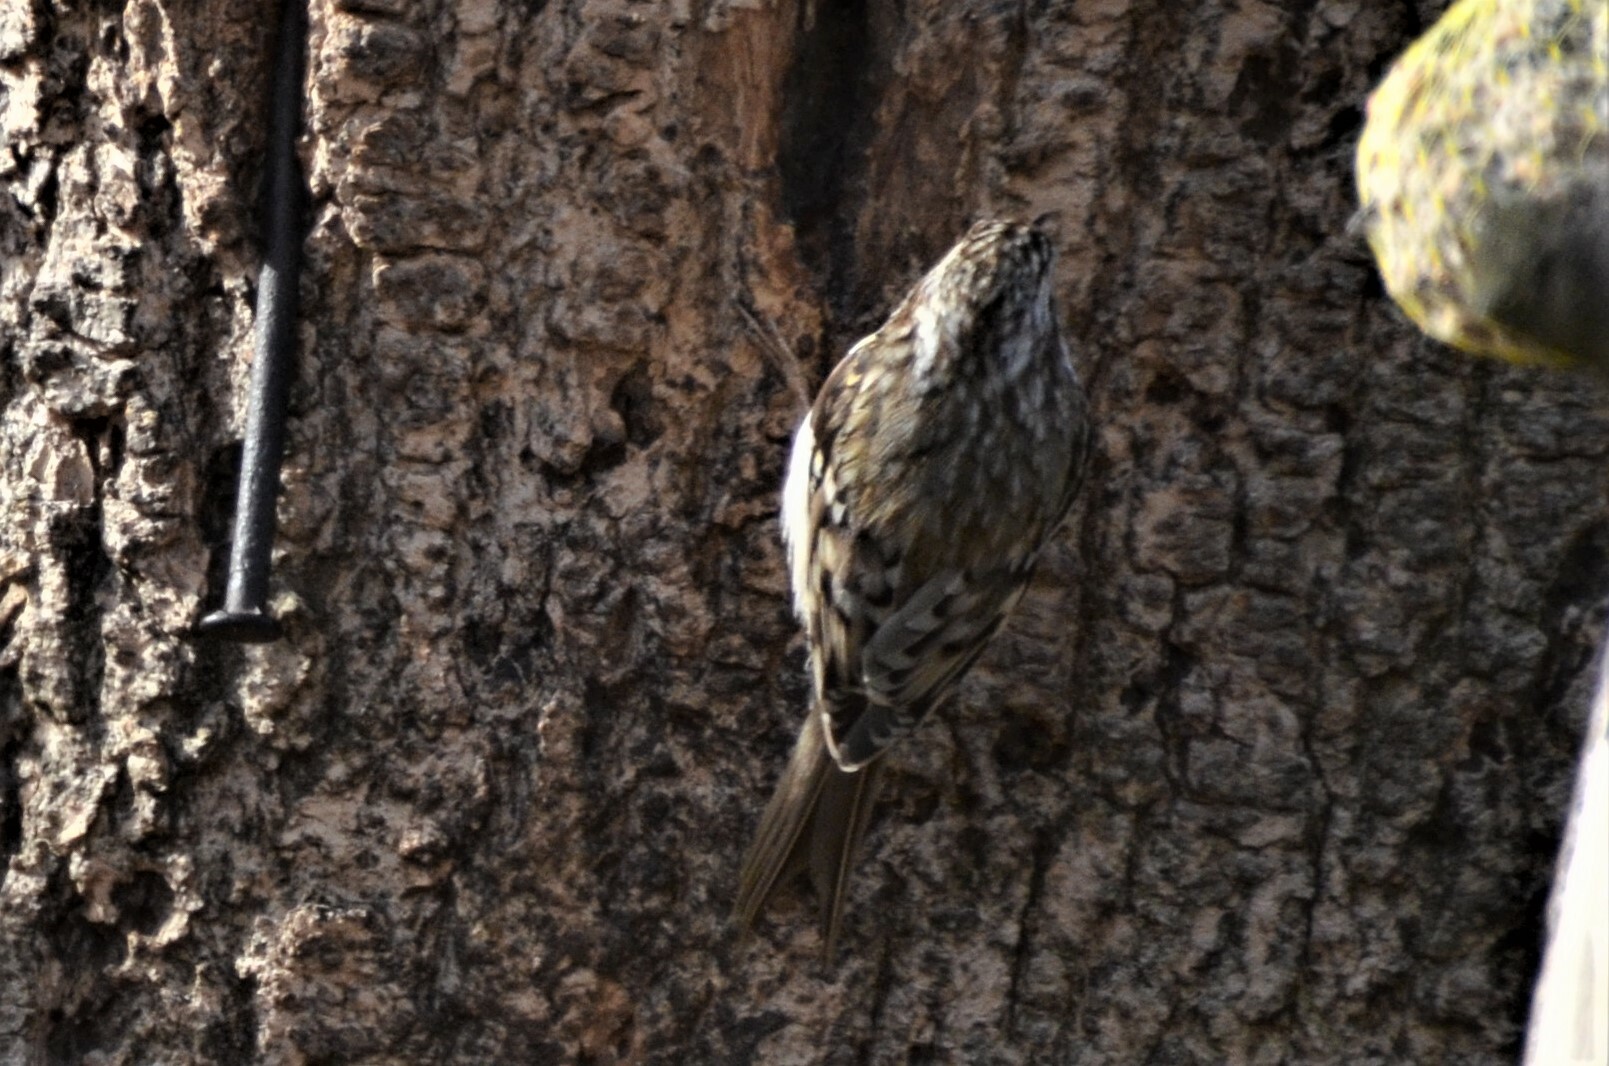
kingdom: Animalia
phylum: Chordata
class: Aves
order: Passeriformes
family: Certhiidae
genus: Certhia
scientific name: Certhia familiaris
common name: Eurasian treecreeper
